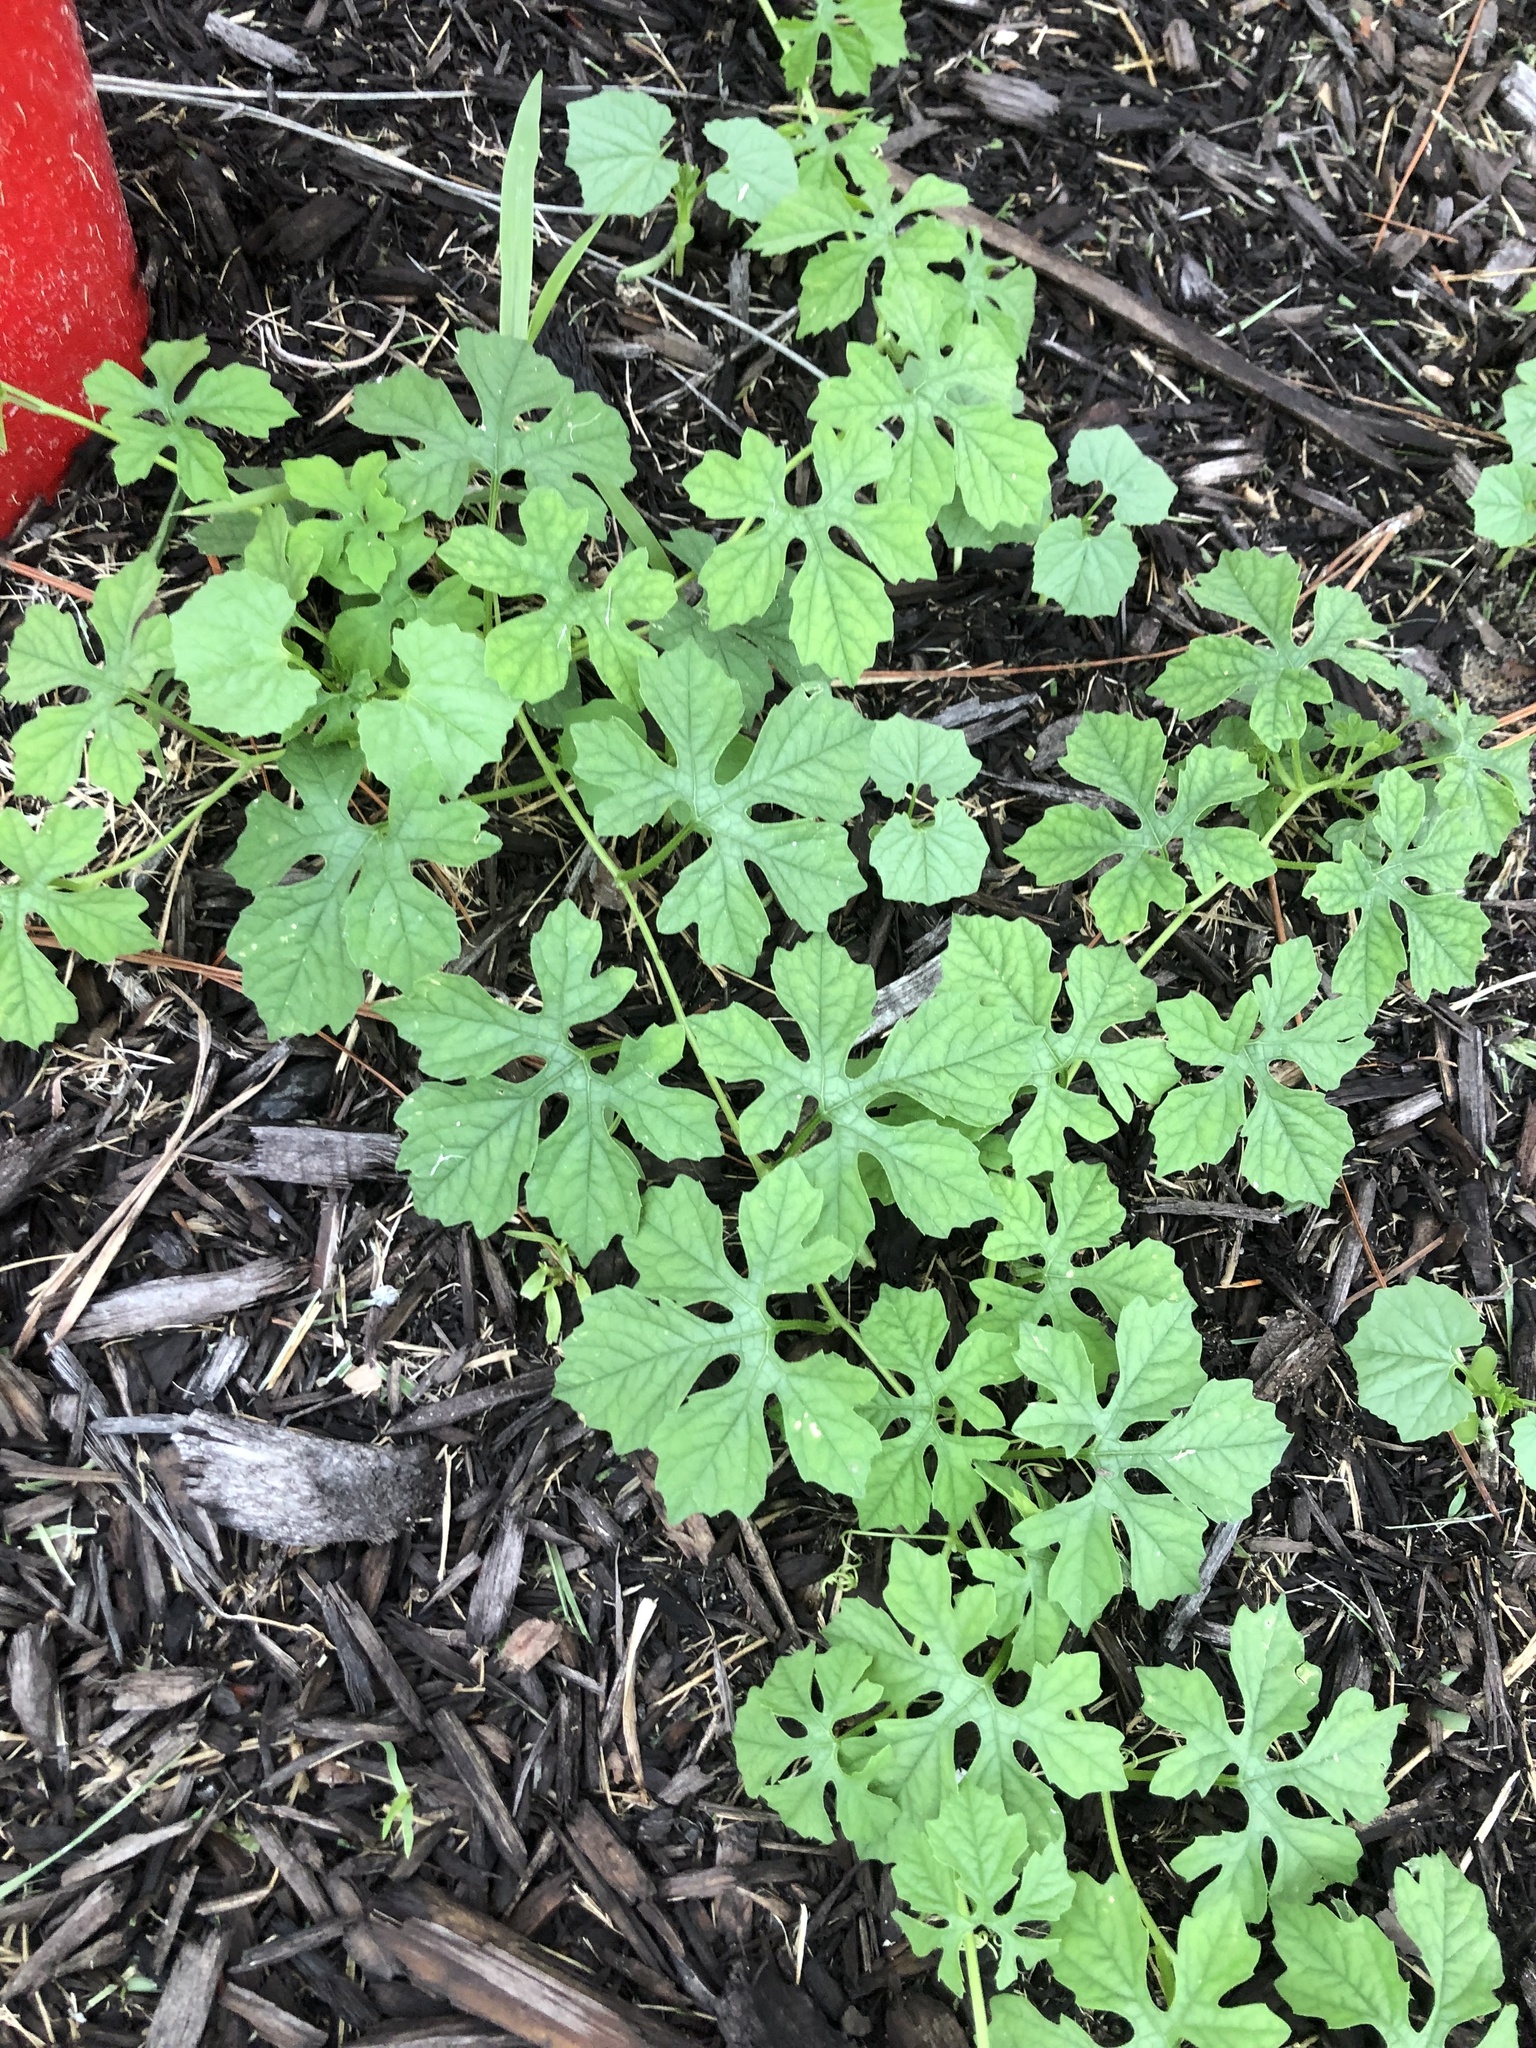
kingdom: Plantae
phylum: Tracheophyta
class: Magnoliopsida
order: Cucurbitales
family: Cucurbitaceae
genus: Momordica
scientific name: Momordica charantia
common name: Balsampear
